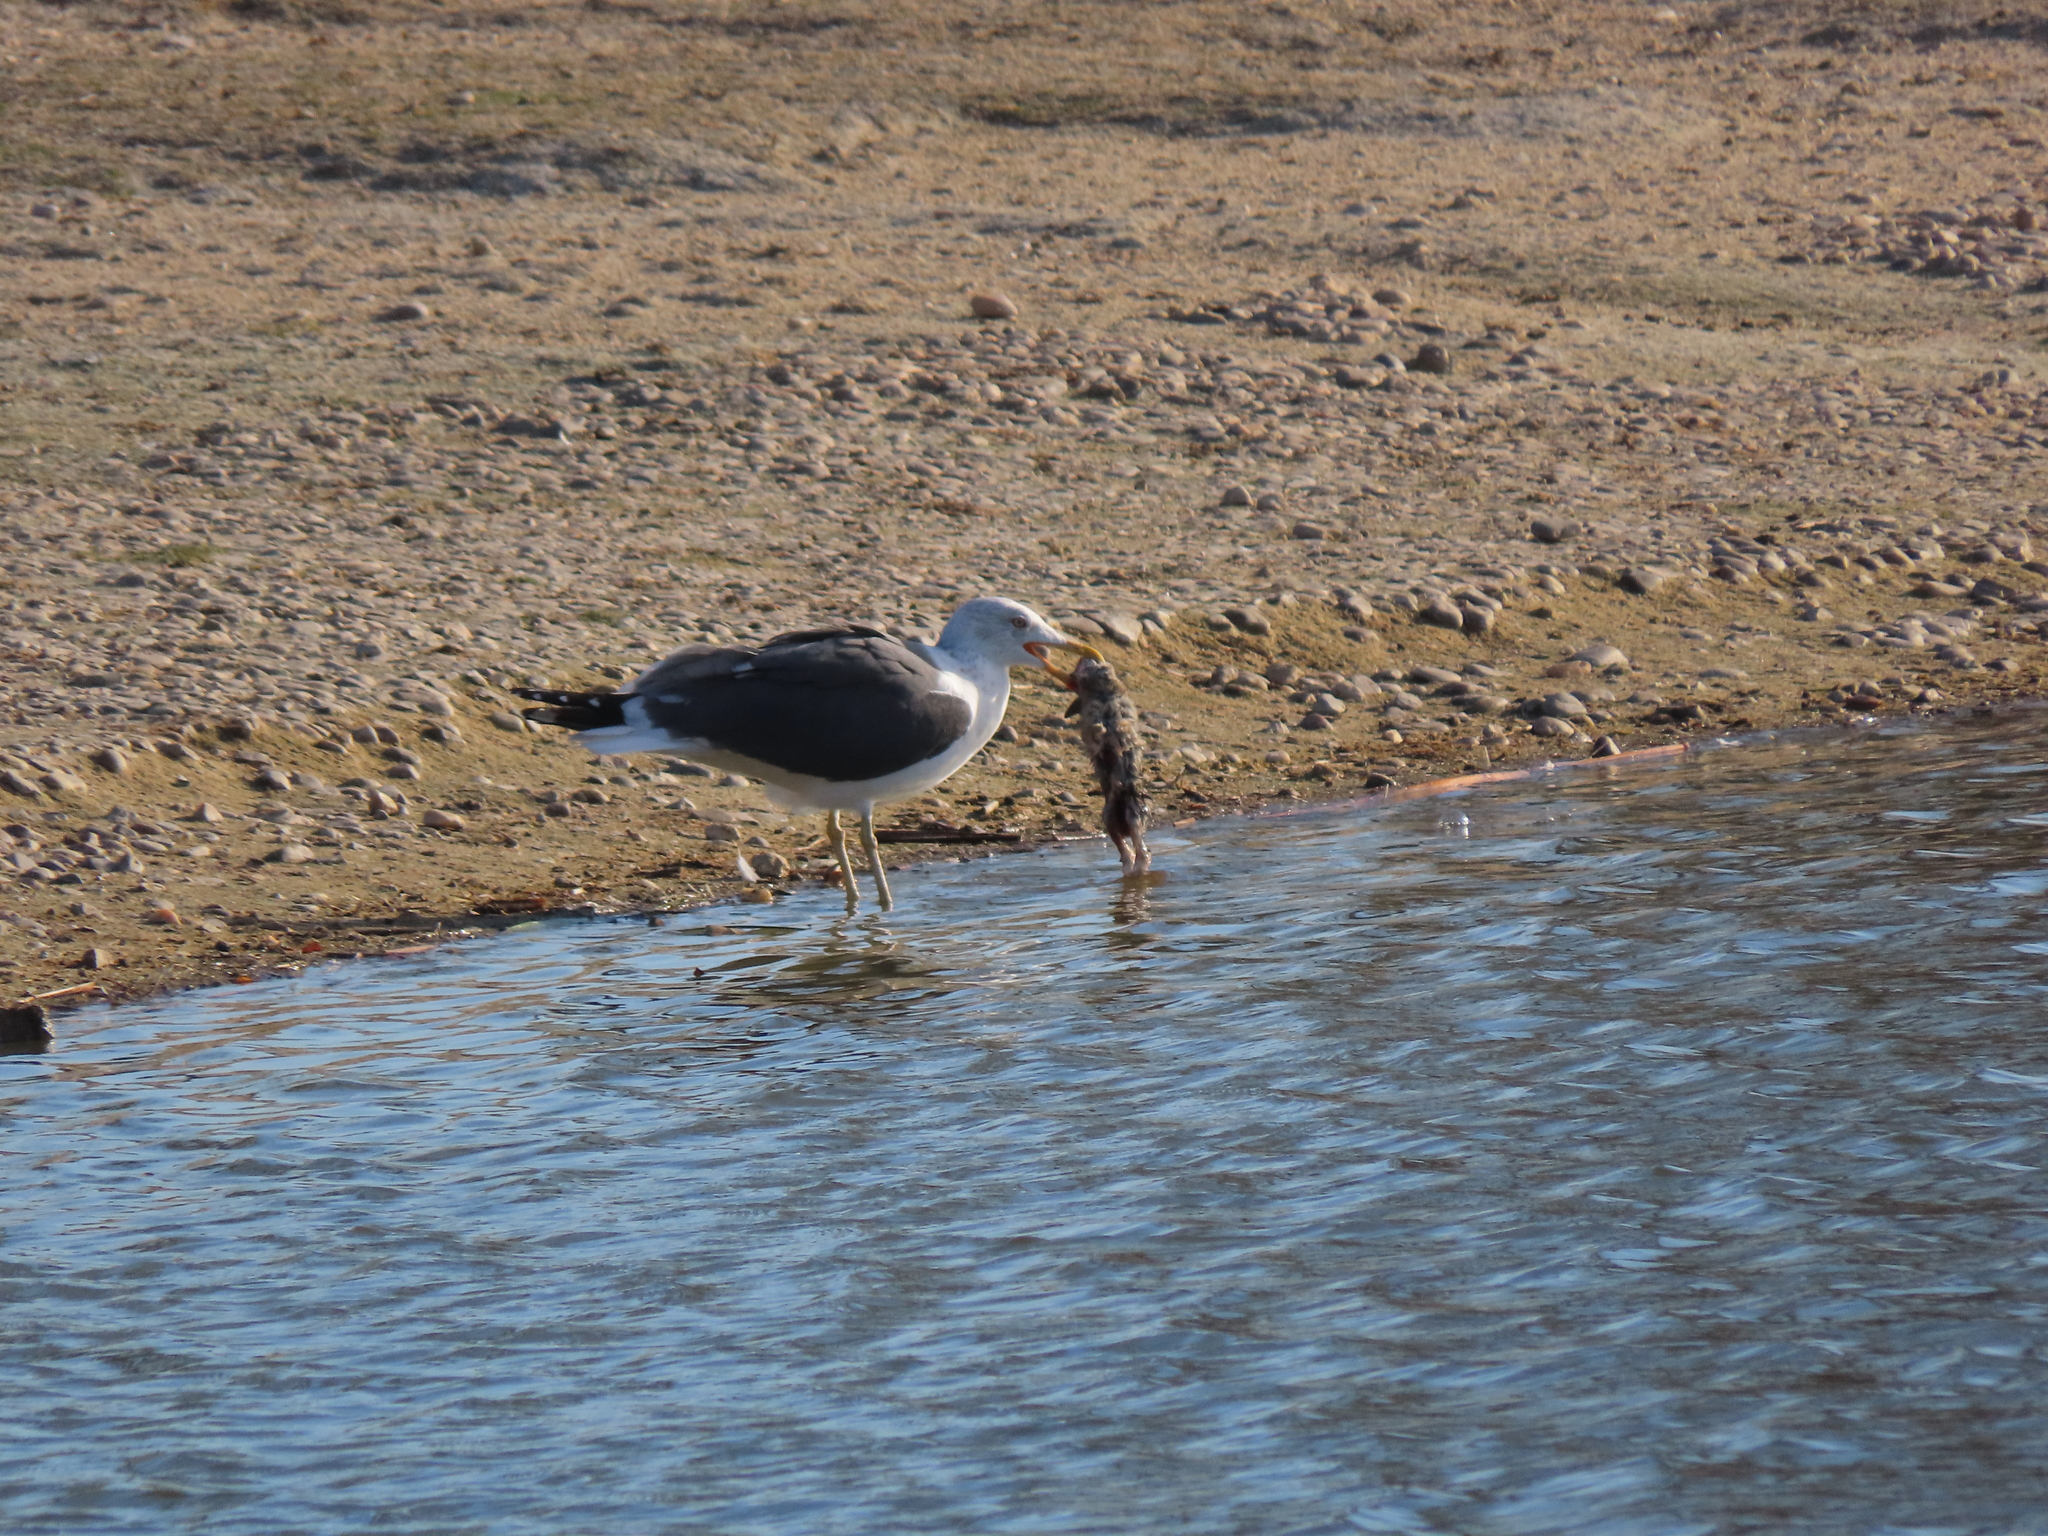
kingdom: Animalia
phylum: Chordata
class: Mammalia
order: Lagomorpha
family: Leporidae
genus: Oryctolagus
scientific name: Oryctolagus cuniculus
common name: European rabbit
